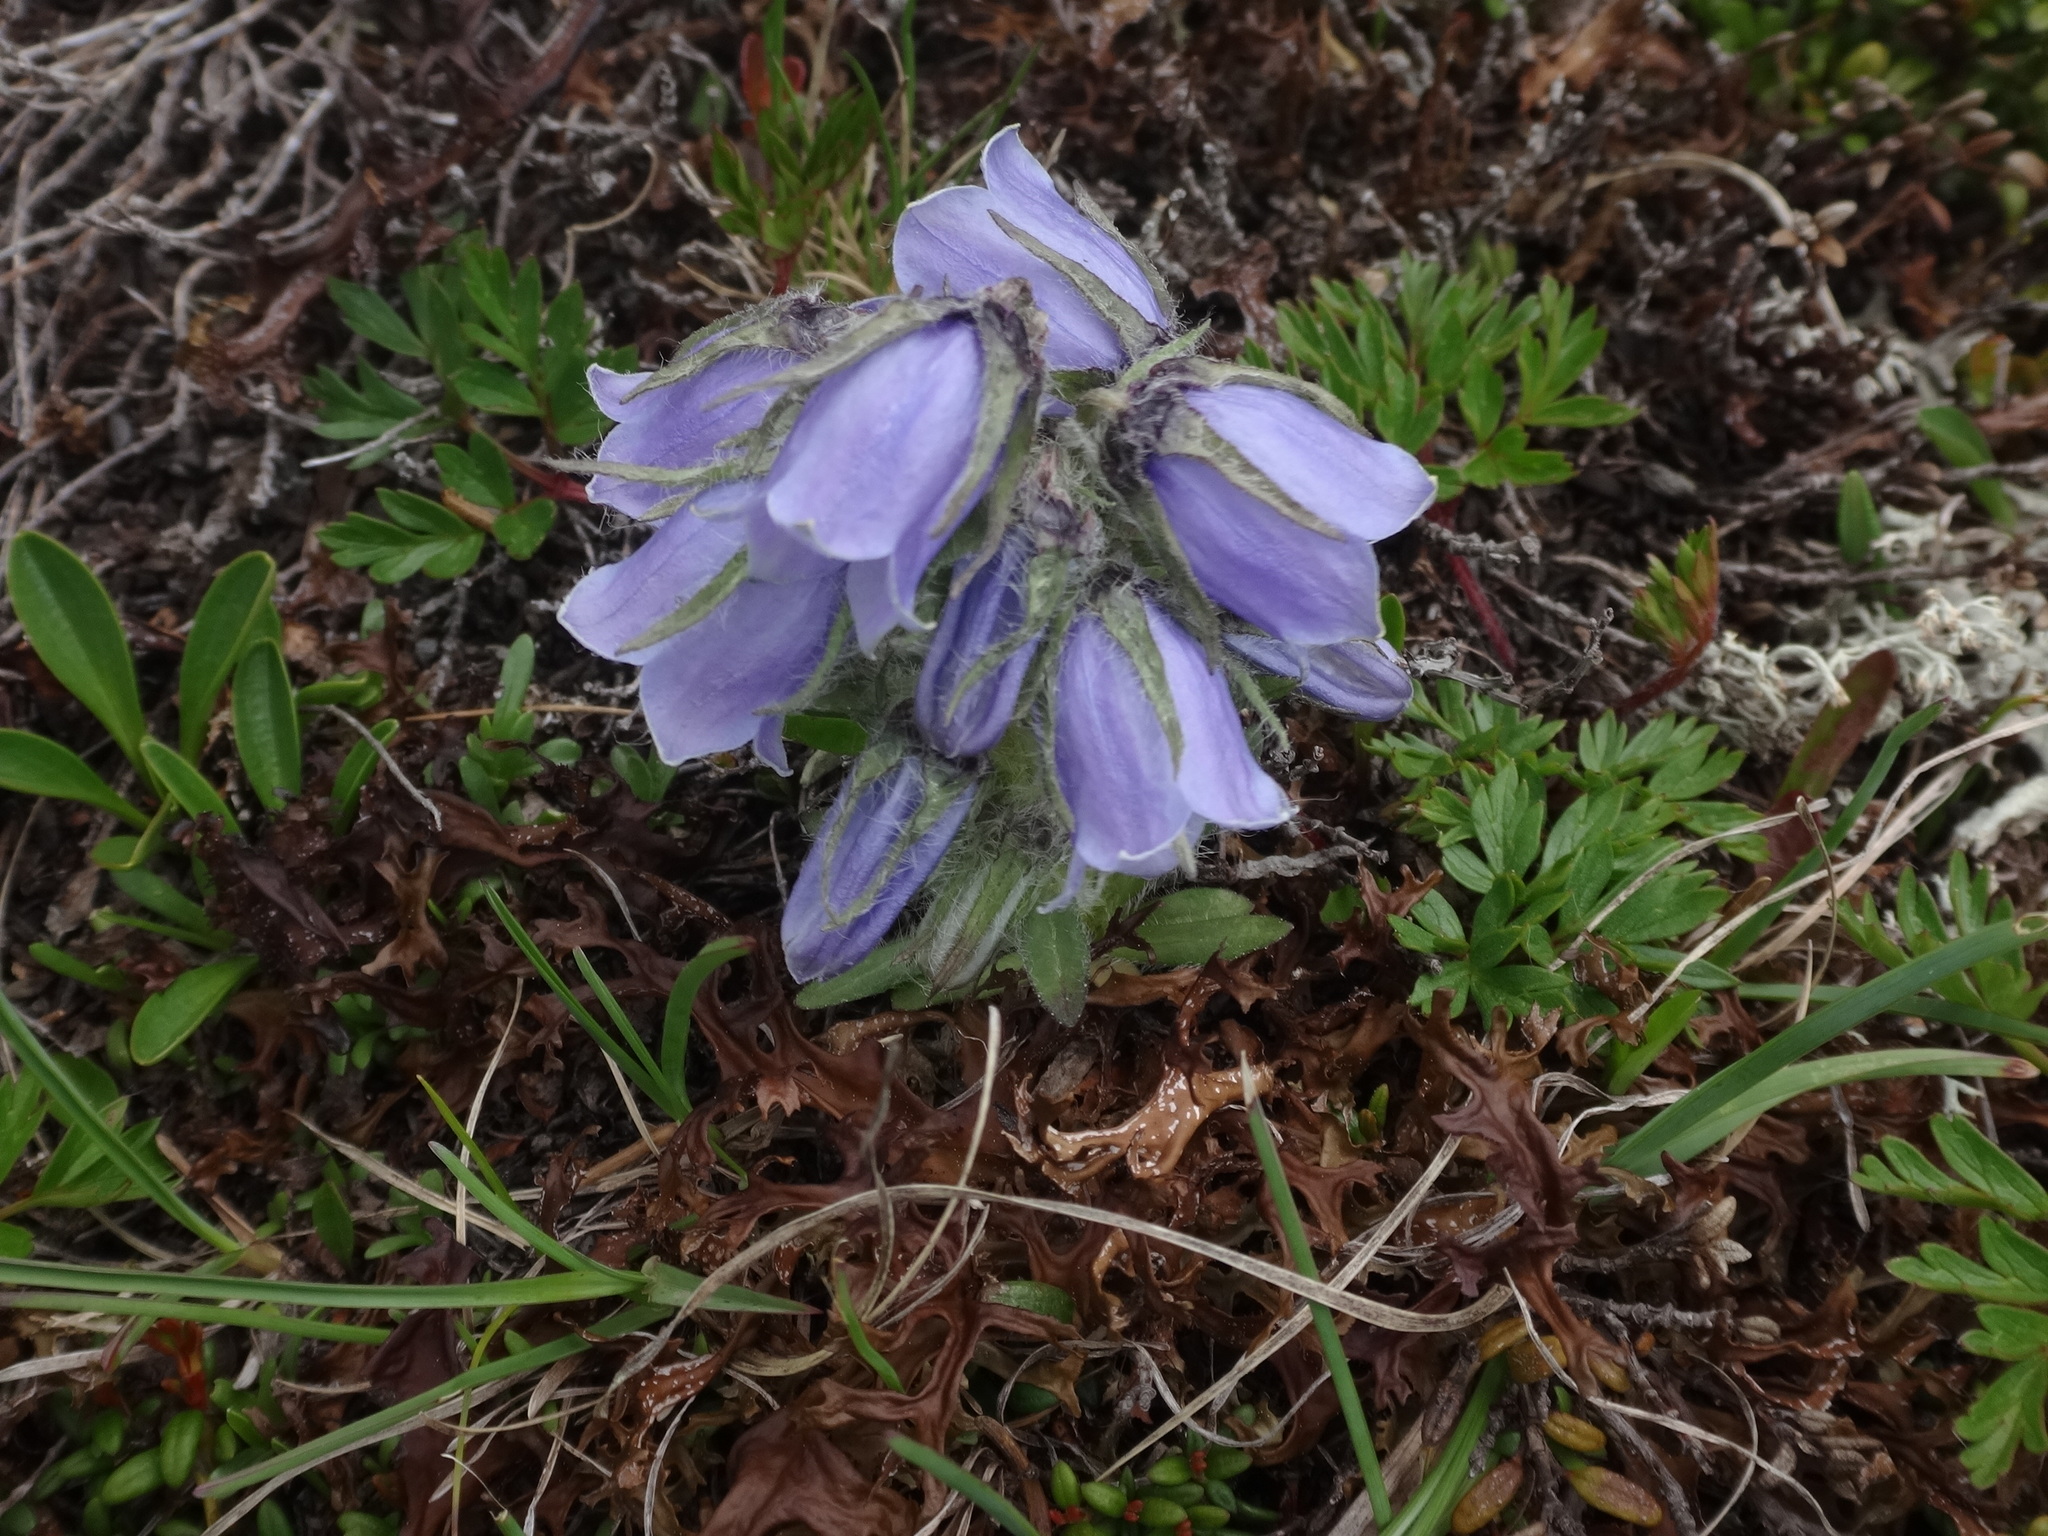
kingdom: Plantae
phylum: Tracheophyta
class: Magnoliopsida
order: Asterales
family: Campanulaceae
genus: Campanula
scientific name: Campanula alpina
